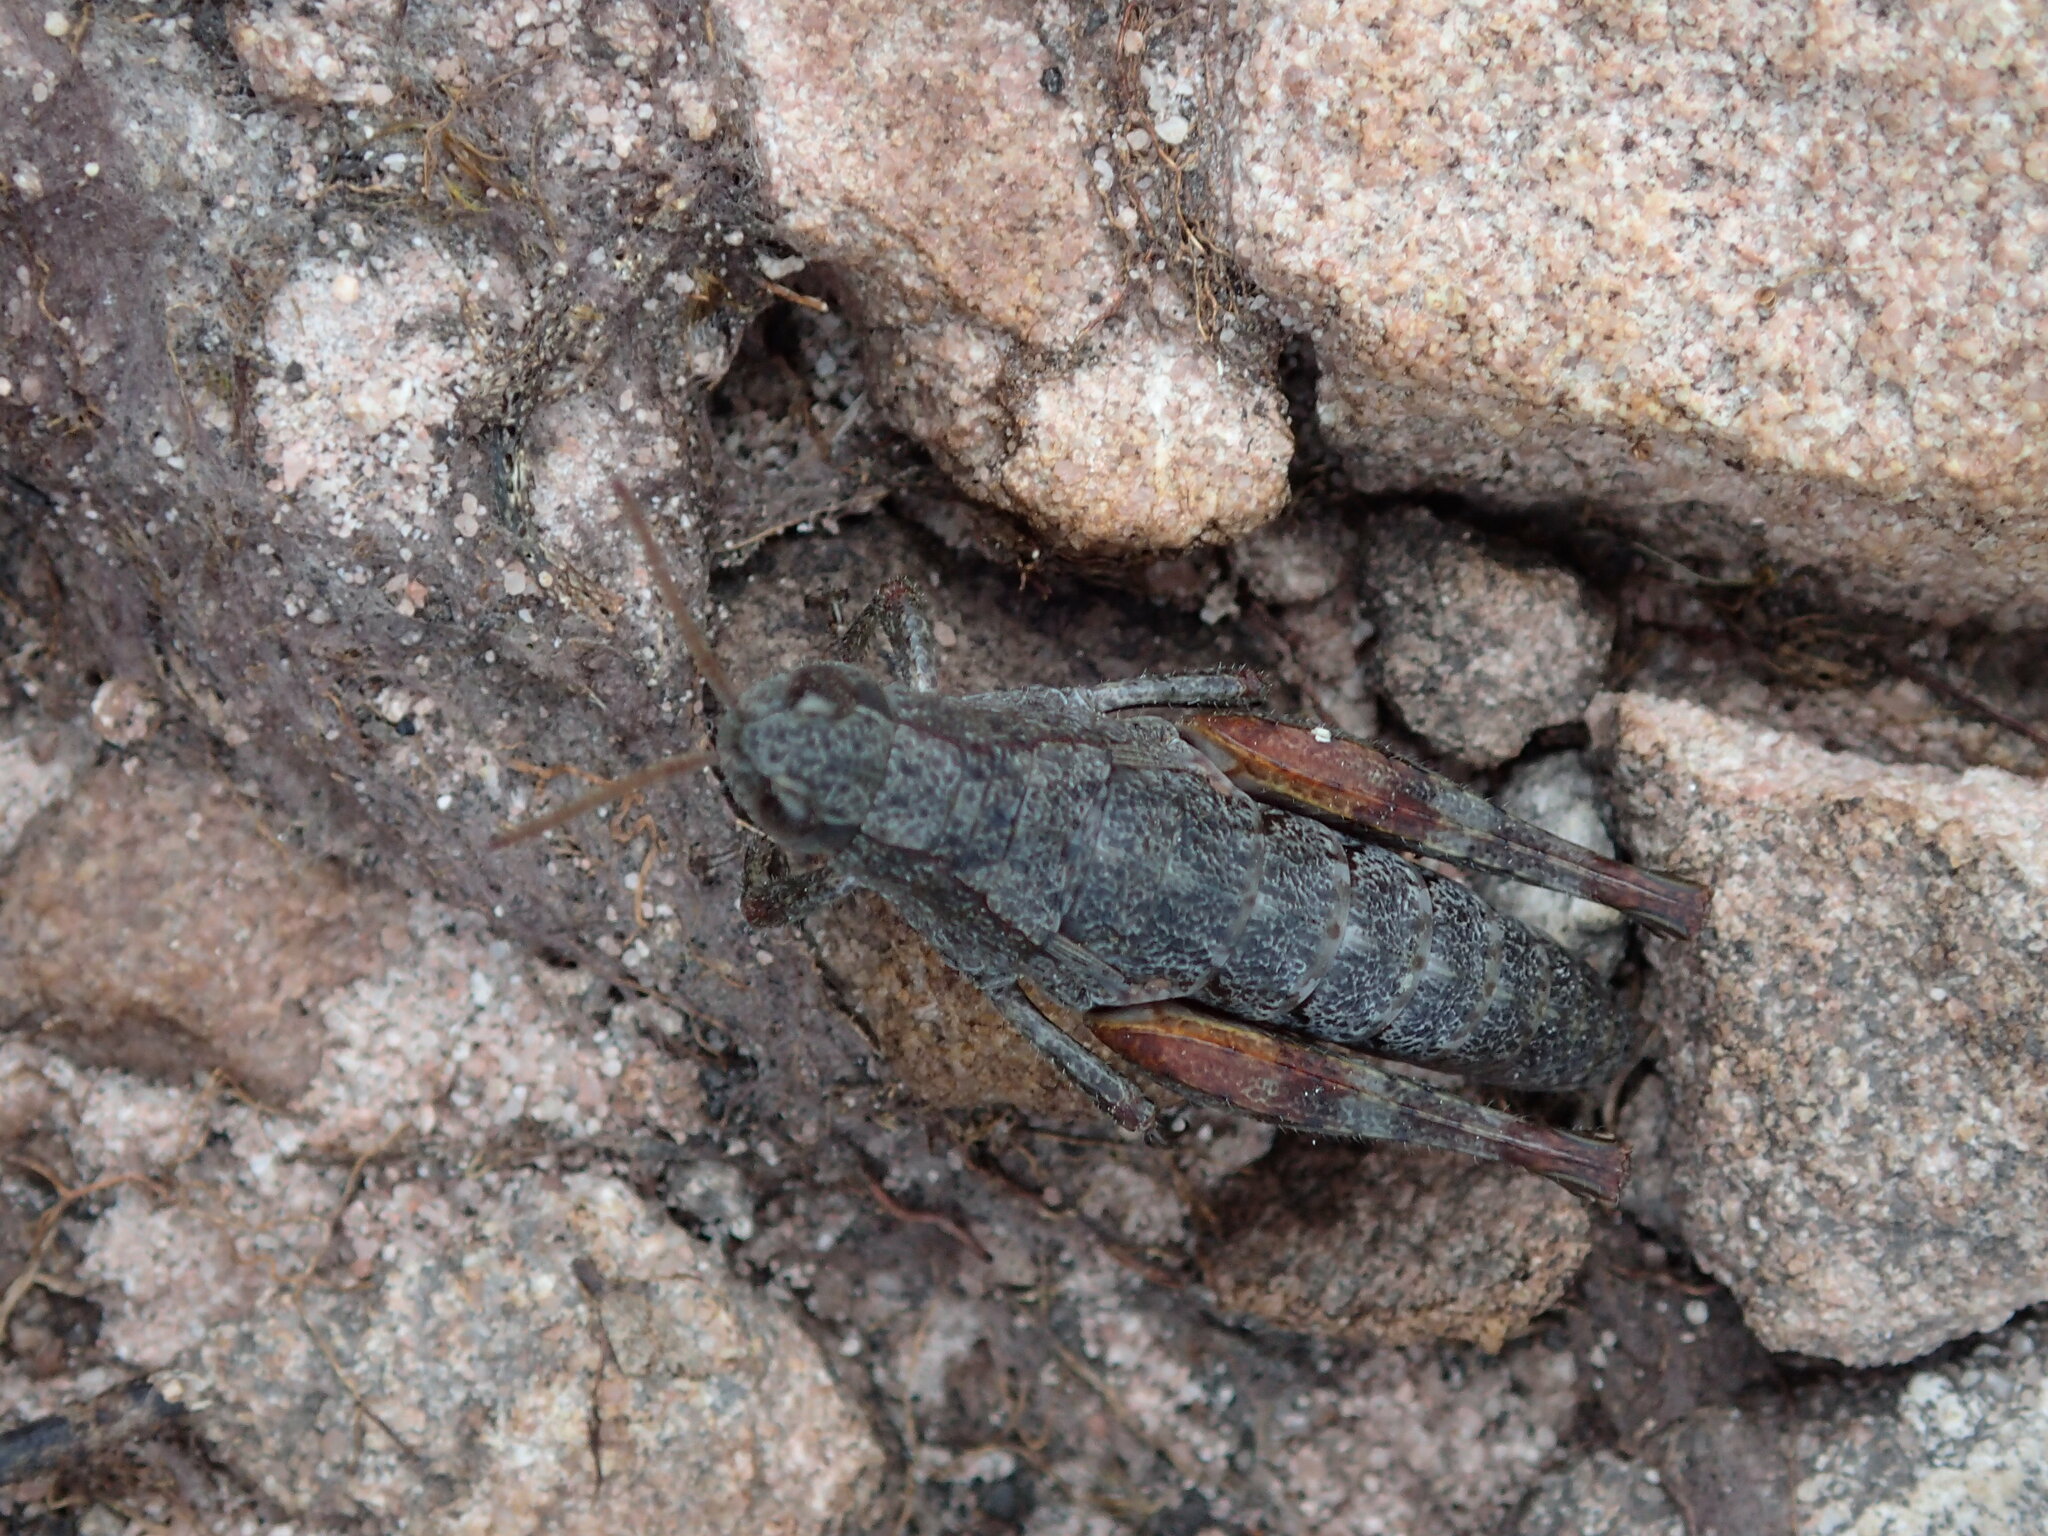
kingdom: Animalia
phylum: Arthropoda
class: Insecta
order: Orthoptera
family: Acrididae
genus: Tasmaniacris
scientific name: Tasmaniacris tasmaniensis
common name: Tasmanian grasshopper
